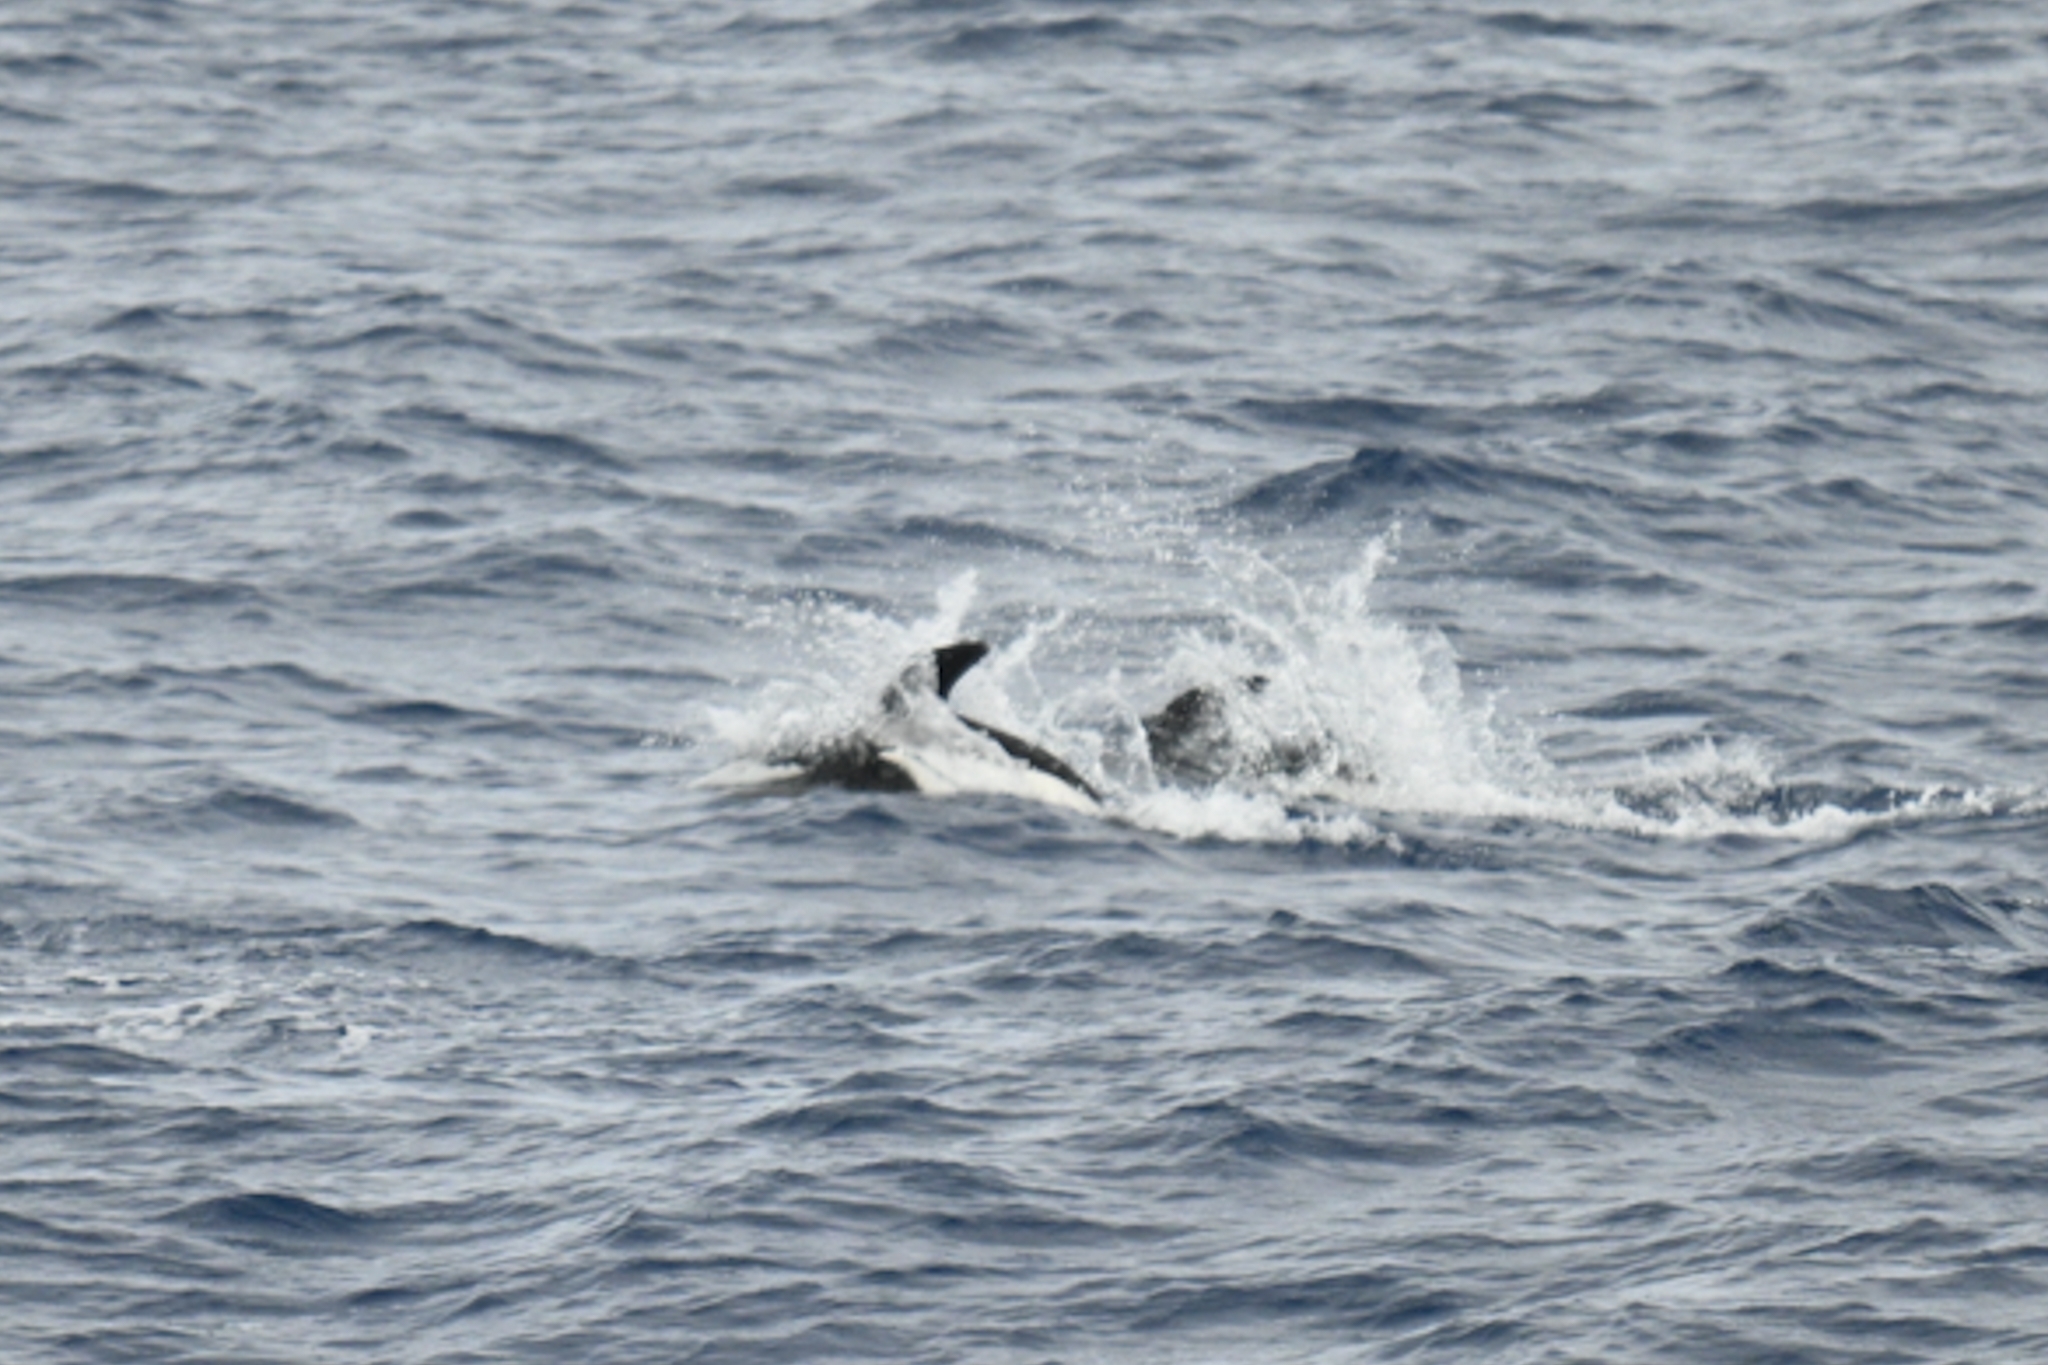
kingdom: Animalia
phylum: Chordata
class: Mammalia
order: Cetacea
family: Delphinidae
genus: Lagenorhynchus
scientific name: Lagenorhynchus cruciger
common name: Hourglass dolphin
